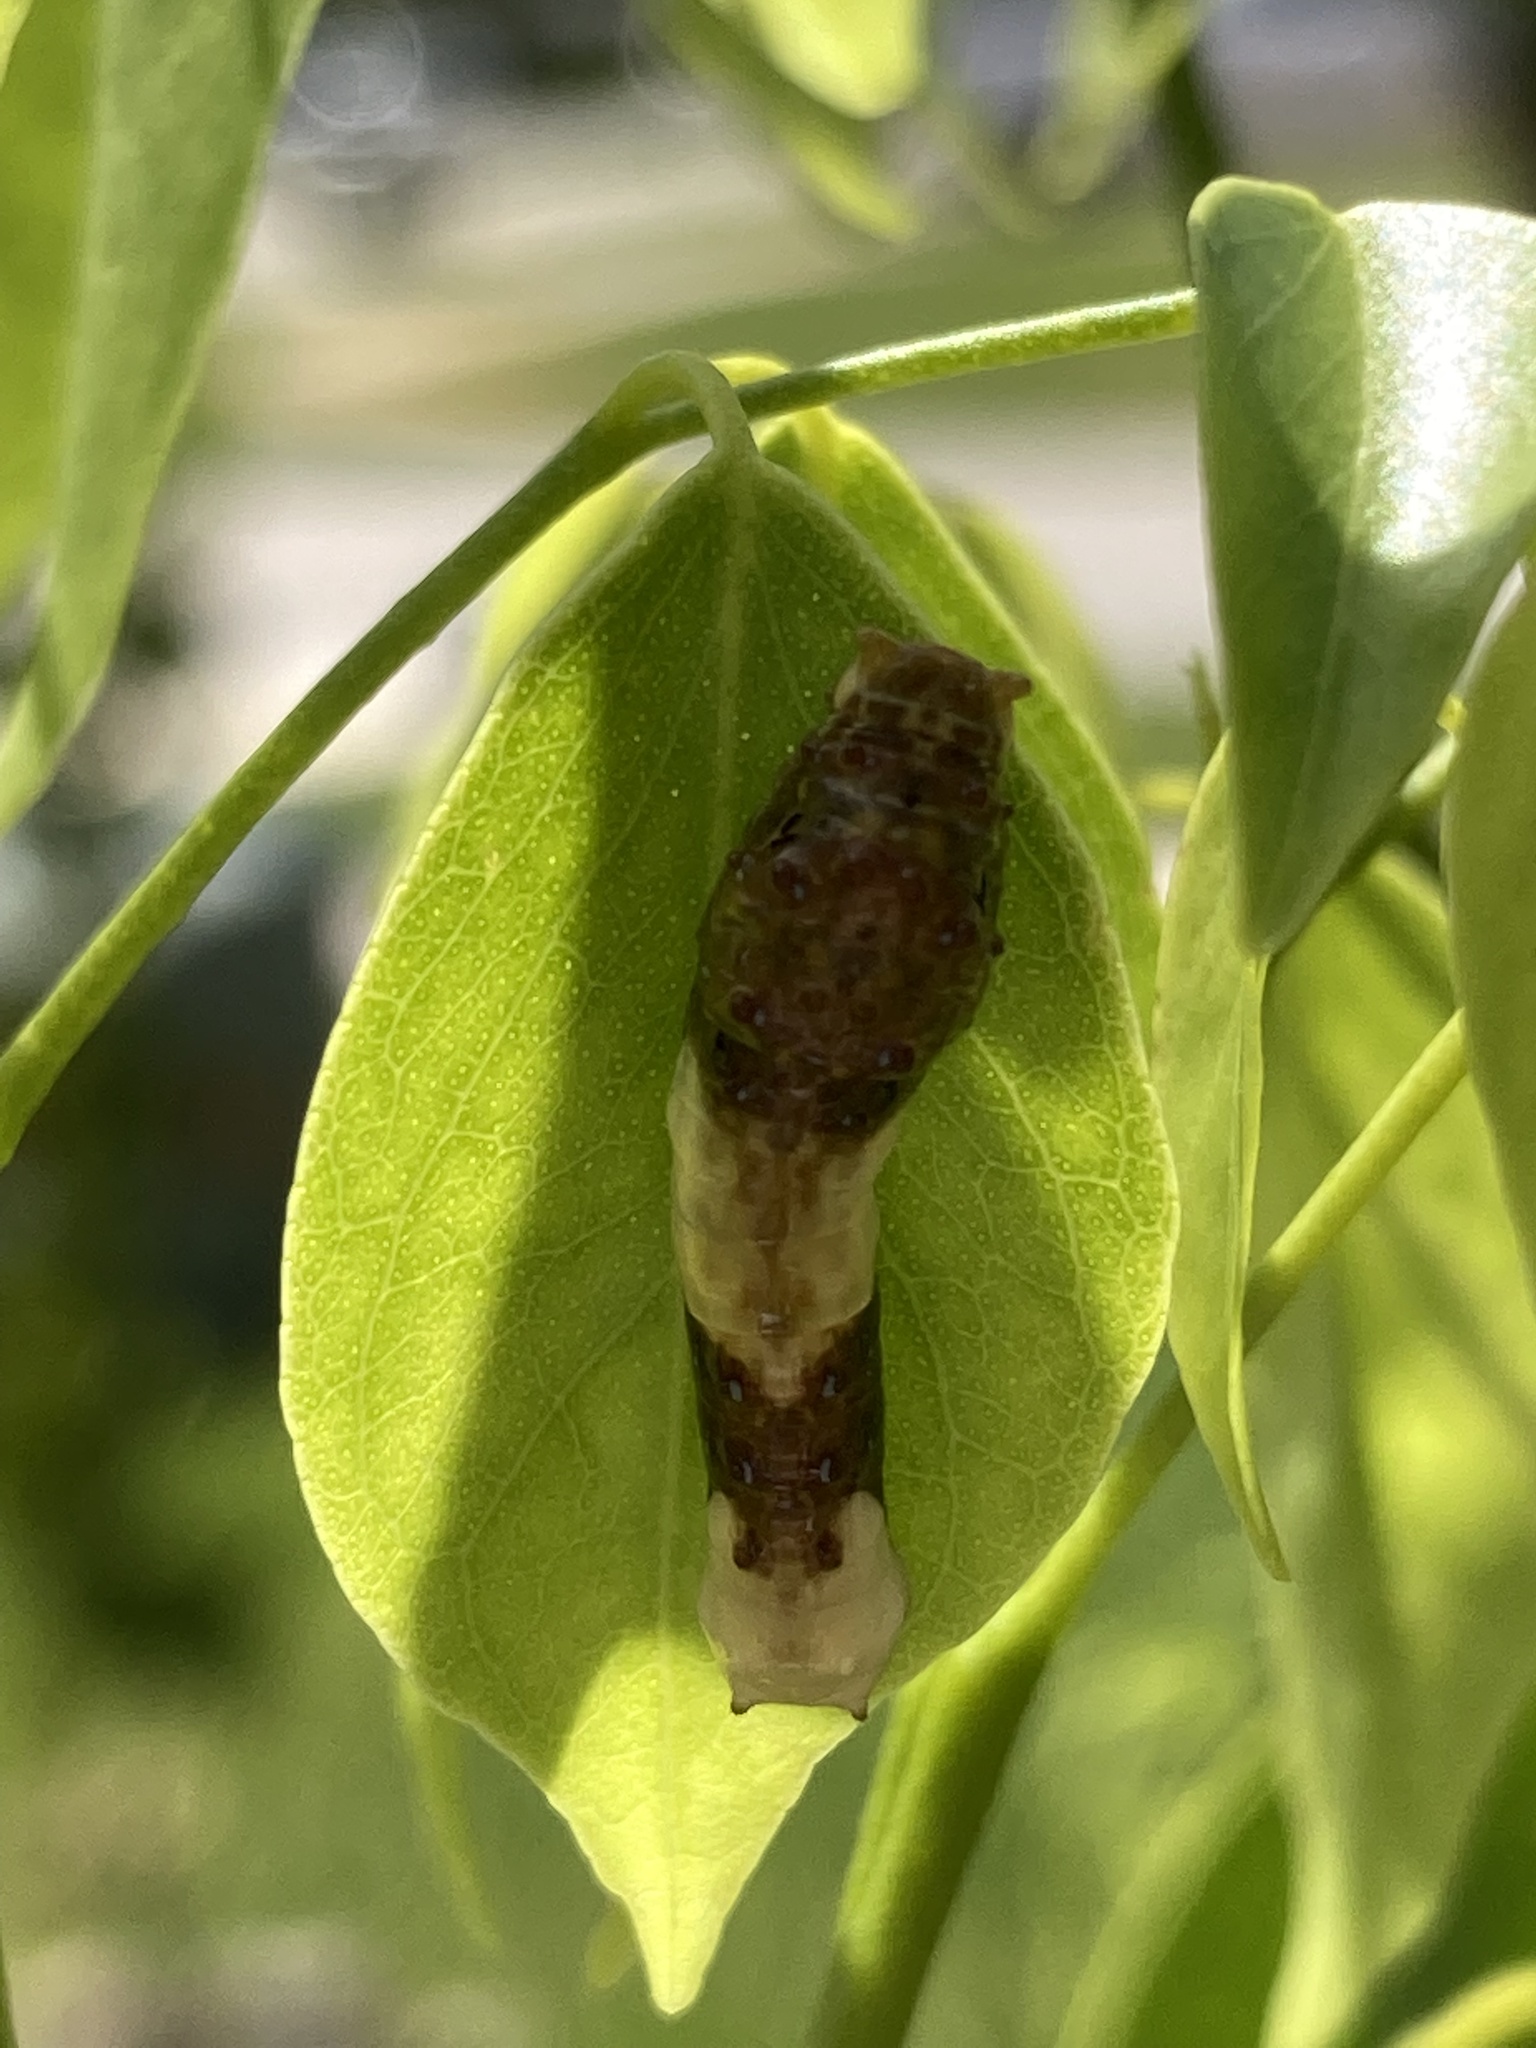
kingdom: Animalia
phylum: Arthropoda
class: Insecta
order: Lepidoptera
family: Papilionidae
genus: Papilio
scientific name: Papilio cresphontes
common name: Giant swallowtail
